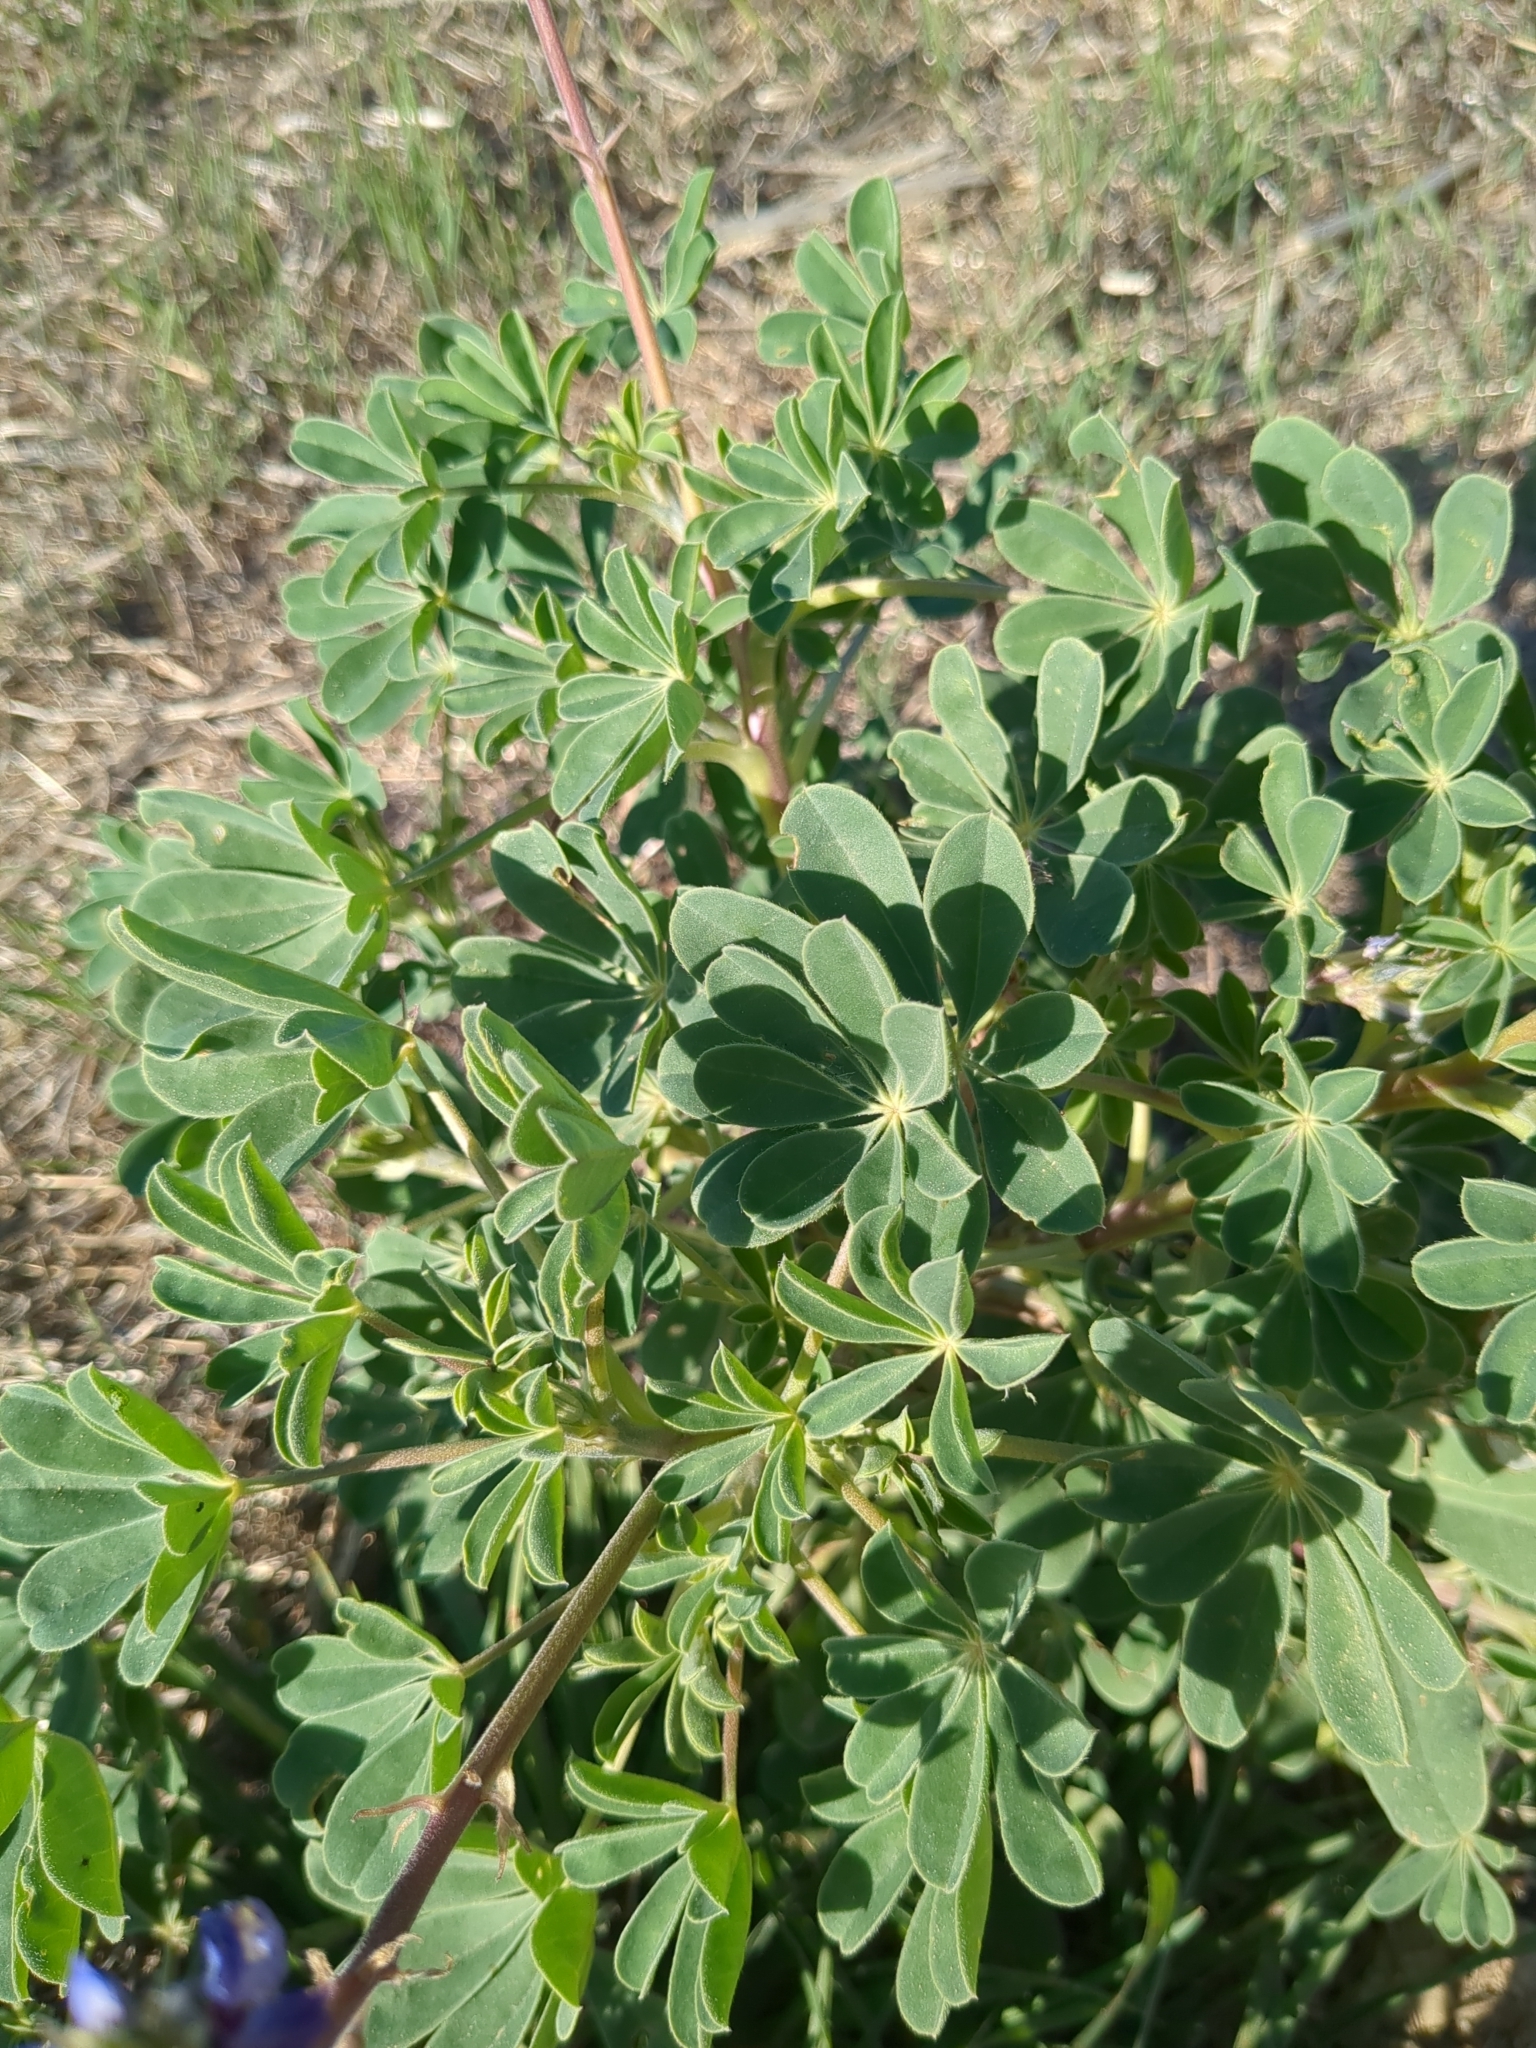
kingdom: Plantae
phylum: Tracheophyta
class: Magnoliopsida
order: Fabales
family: Fabaceae
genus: Lupinus
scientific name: Lupinus succulentus
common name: Arroyo lupine
